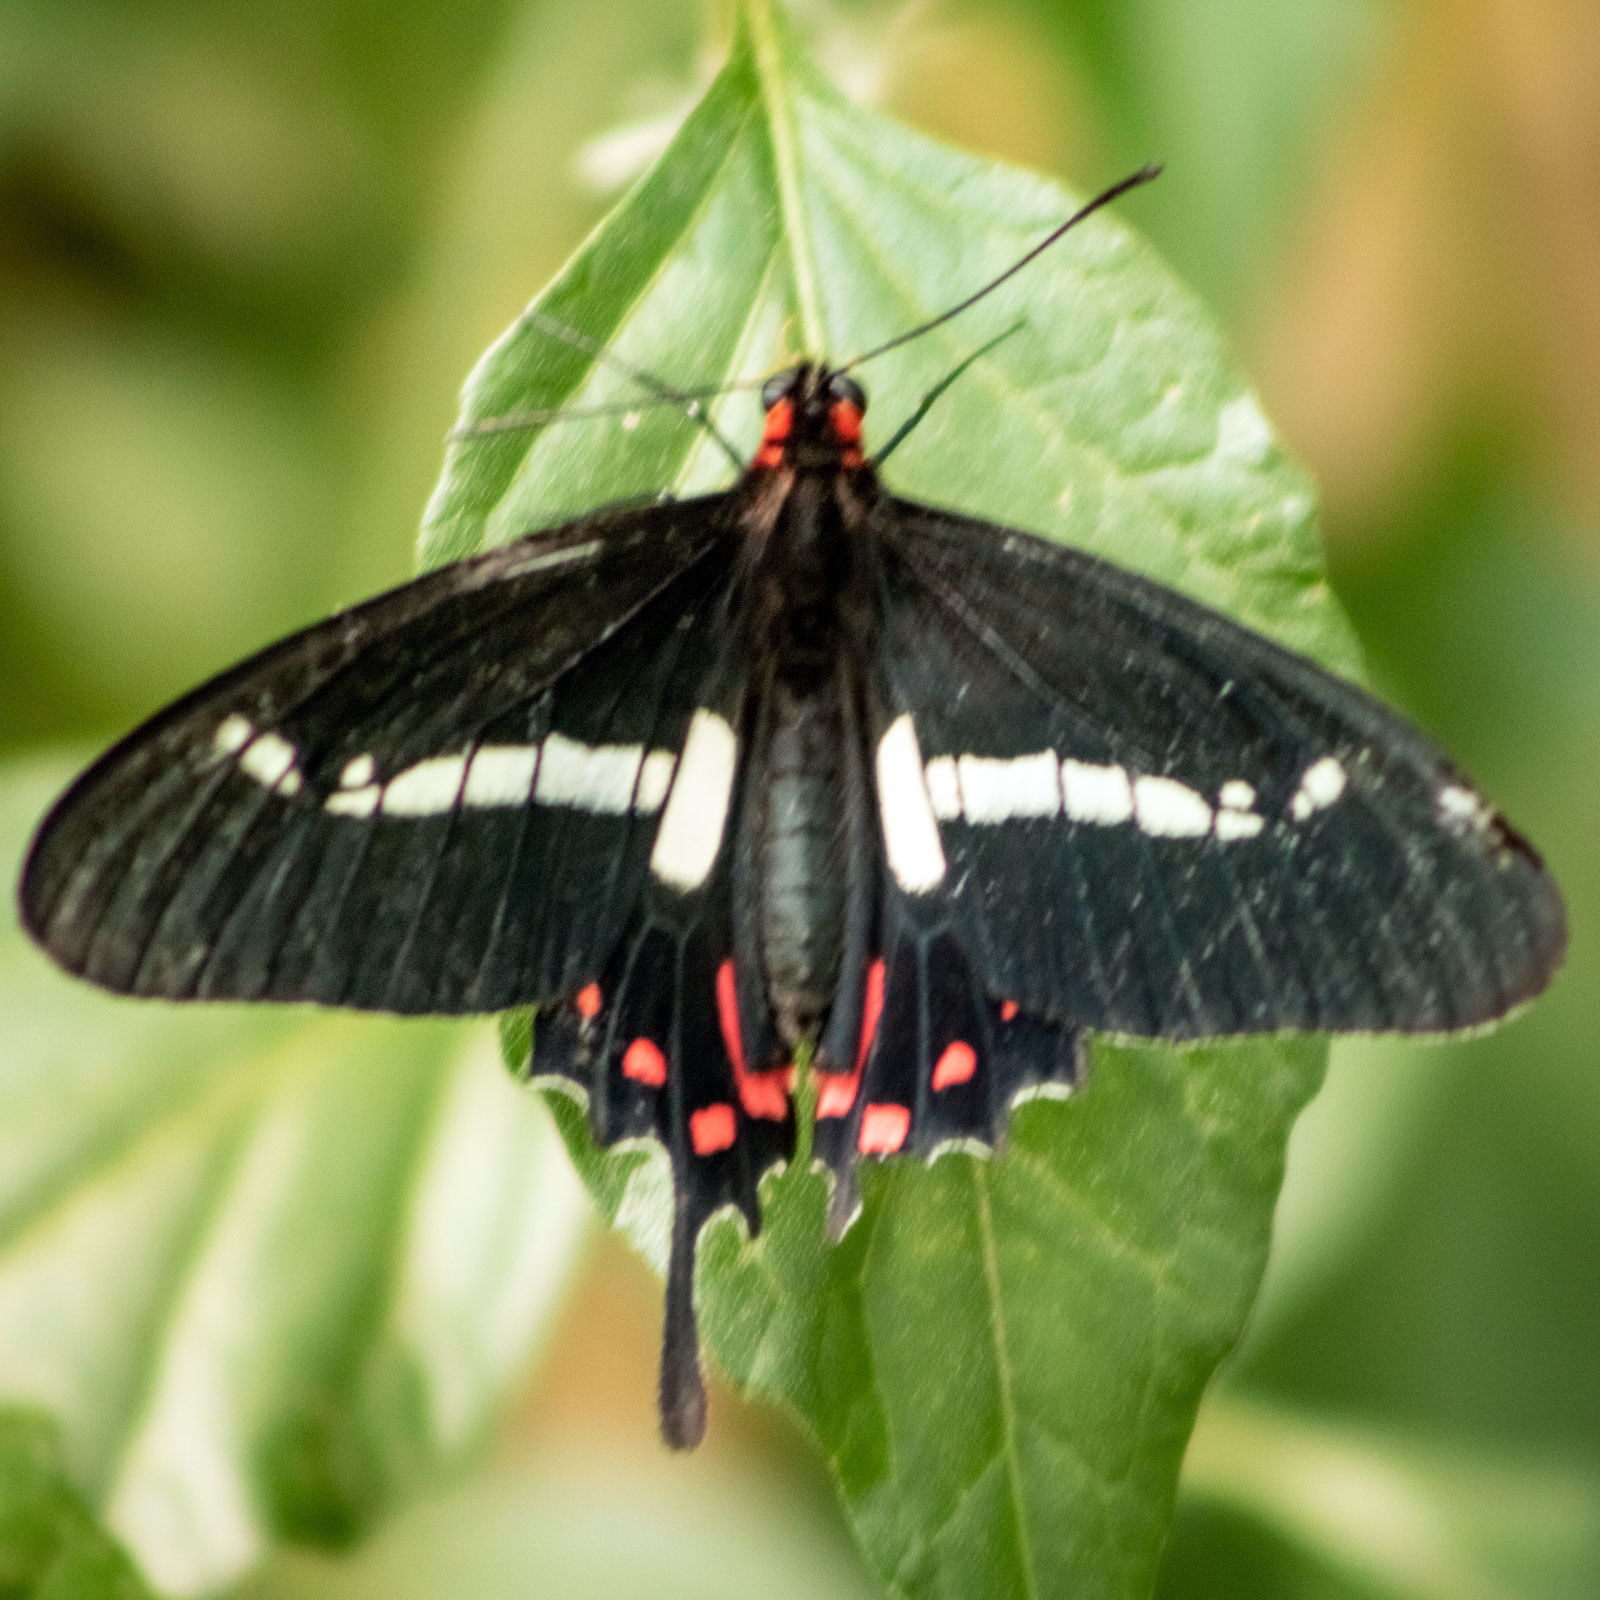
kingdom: Animalia
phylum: Arthropoda
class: Insecta
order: Lepidoptera
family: Papilionidae
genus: Parides
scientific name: Parides agavus
